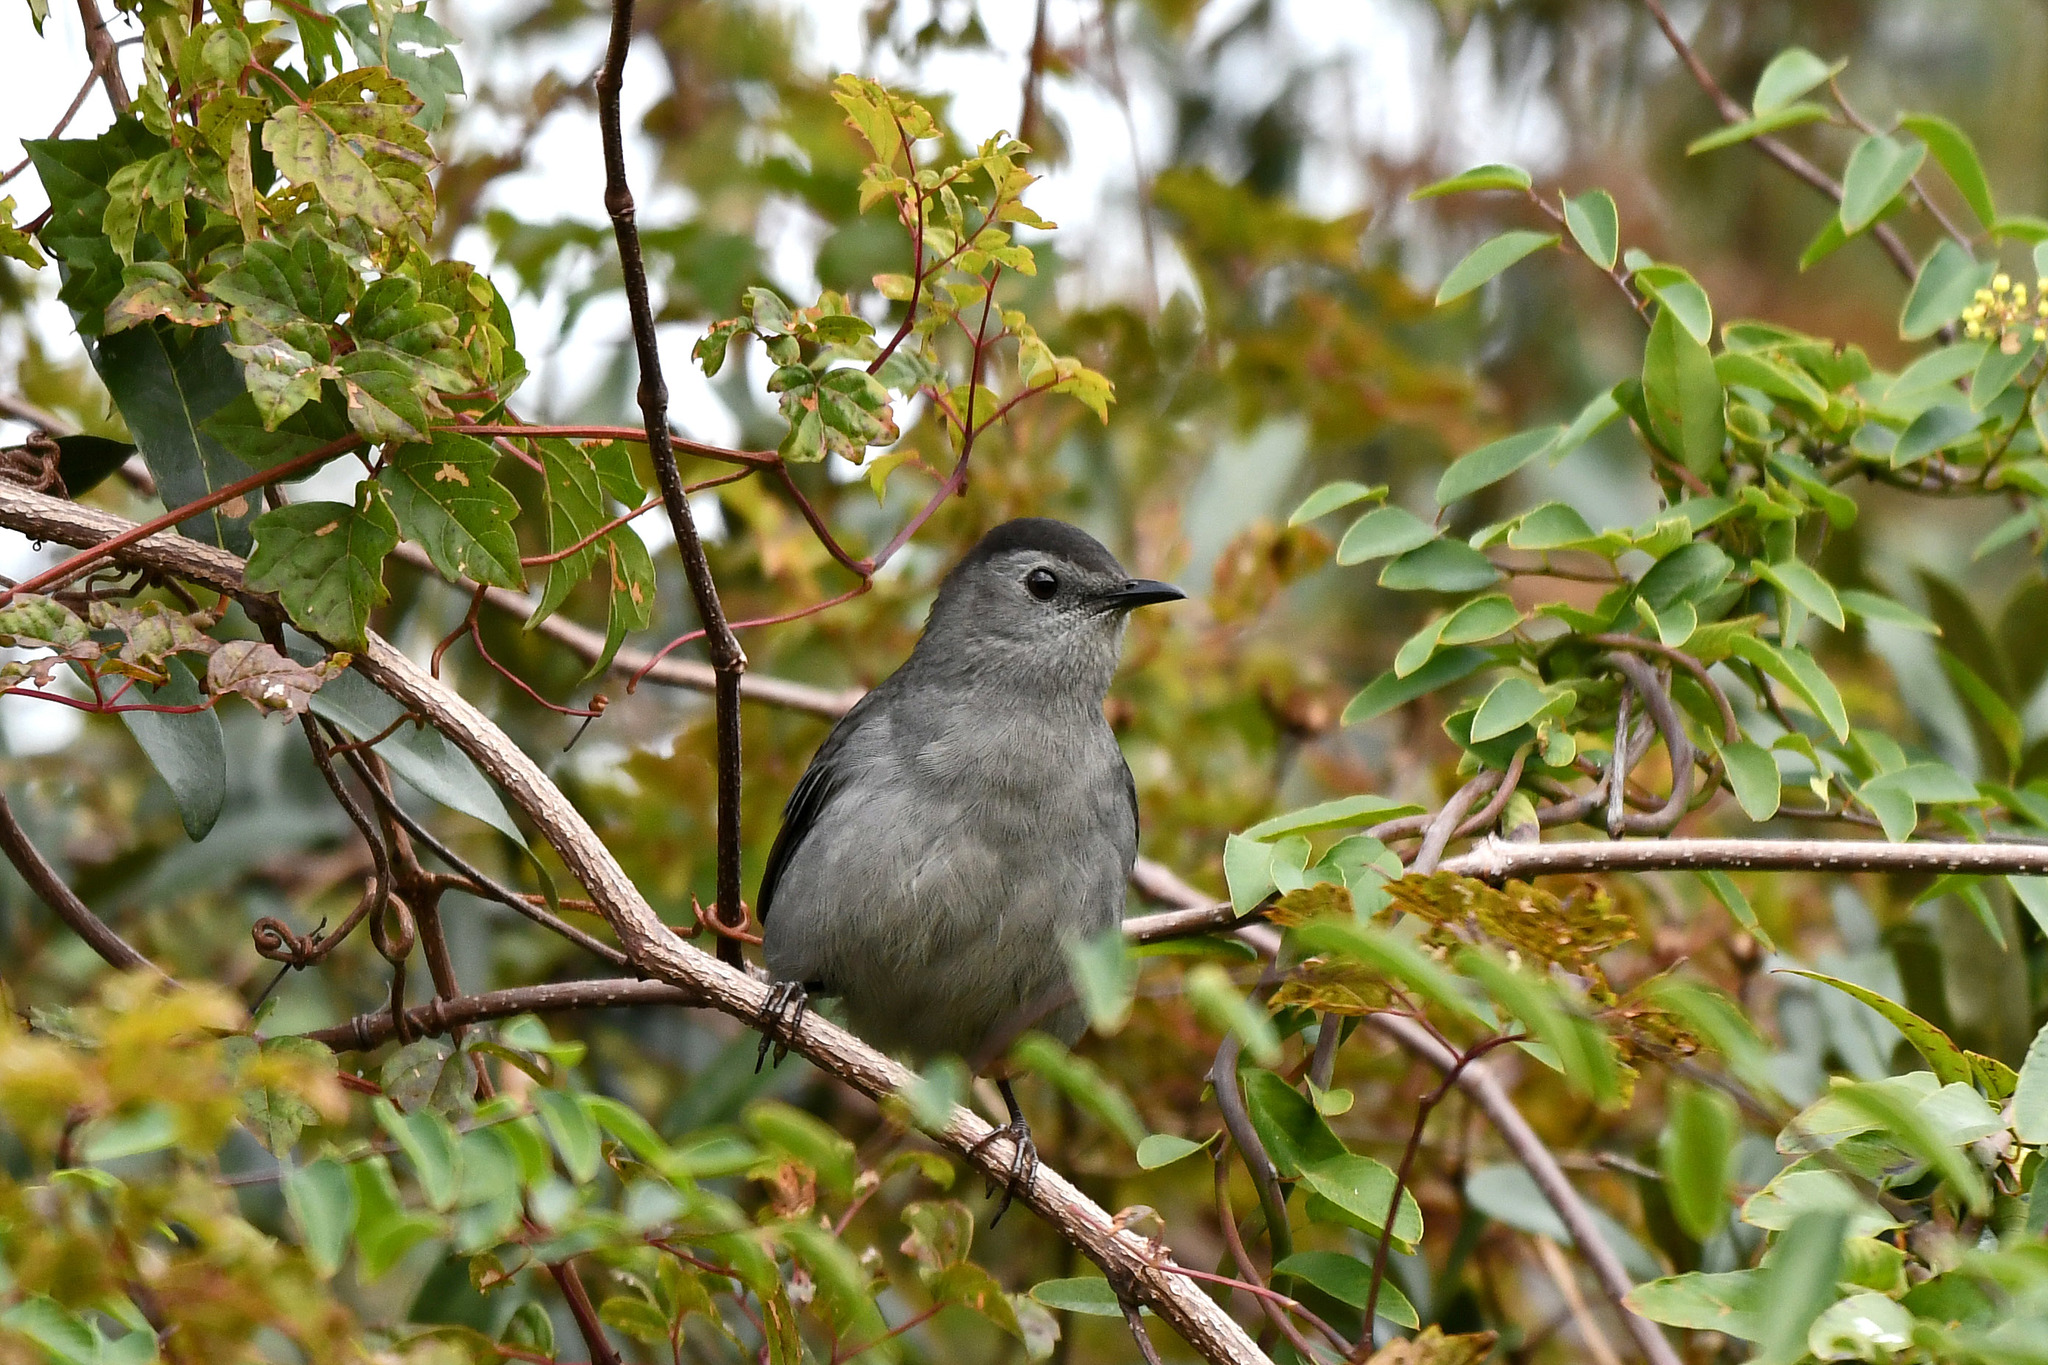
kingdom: Animalia
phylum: Chordata
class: Aves
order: Passeriformes
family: Mimidae
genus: Dumetella
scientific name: Dumetella carolinensis
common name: Gray catbird
